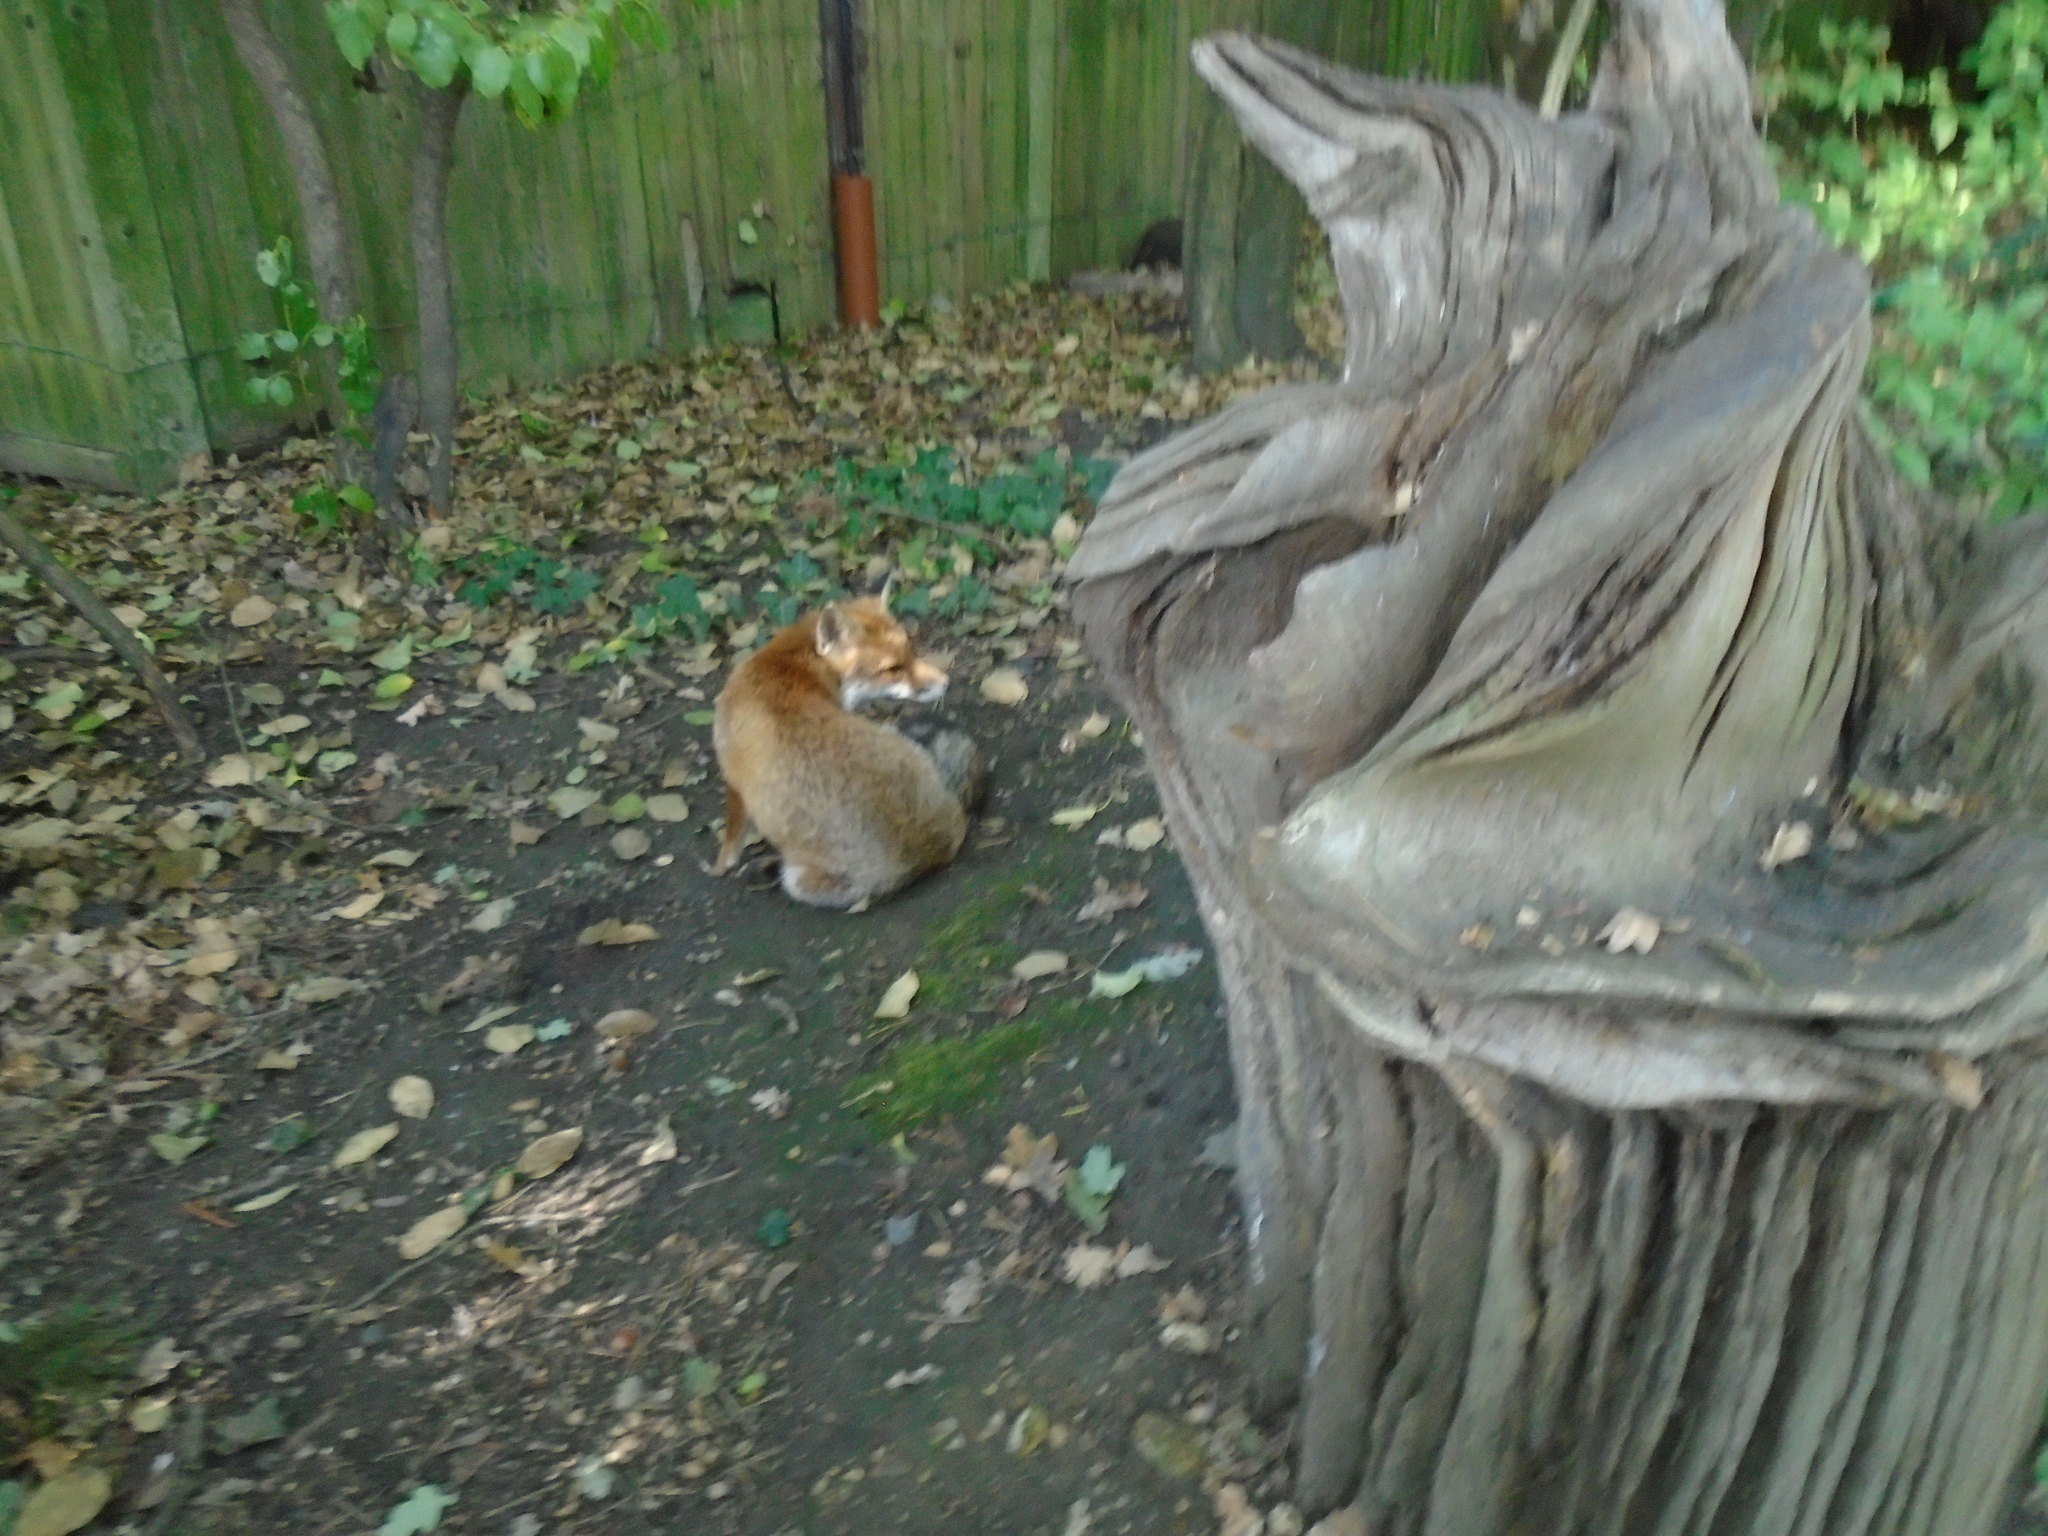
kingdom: Animalia
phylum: Chordata
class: Mammalia
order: Carnivora
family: Canidae
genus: Vulpes
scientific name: Vulpes vulpes
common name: Red fox
